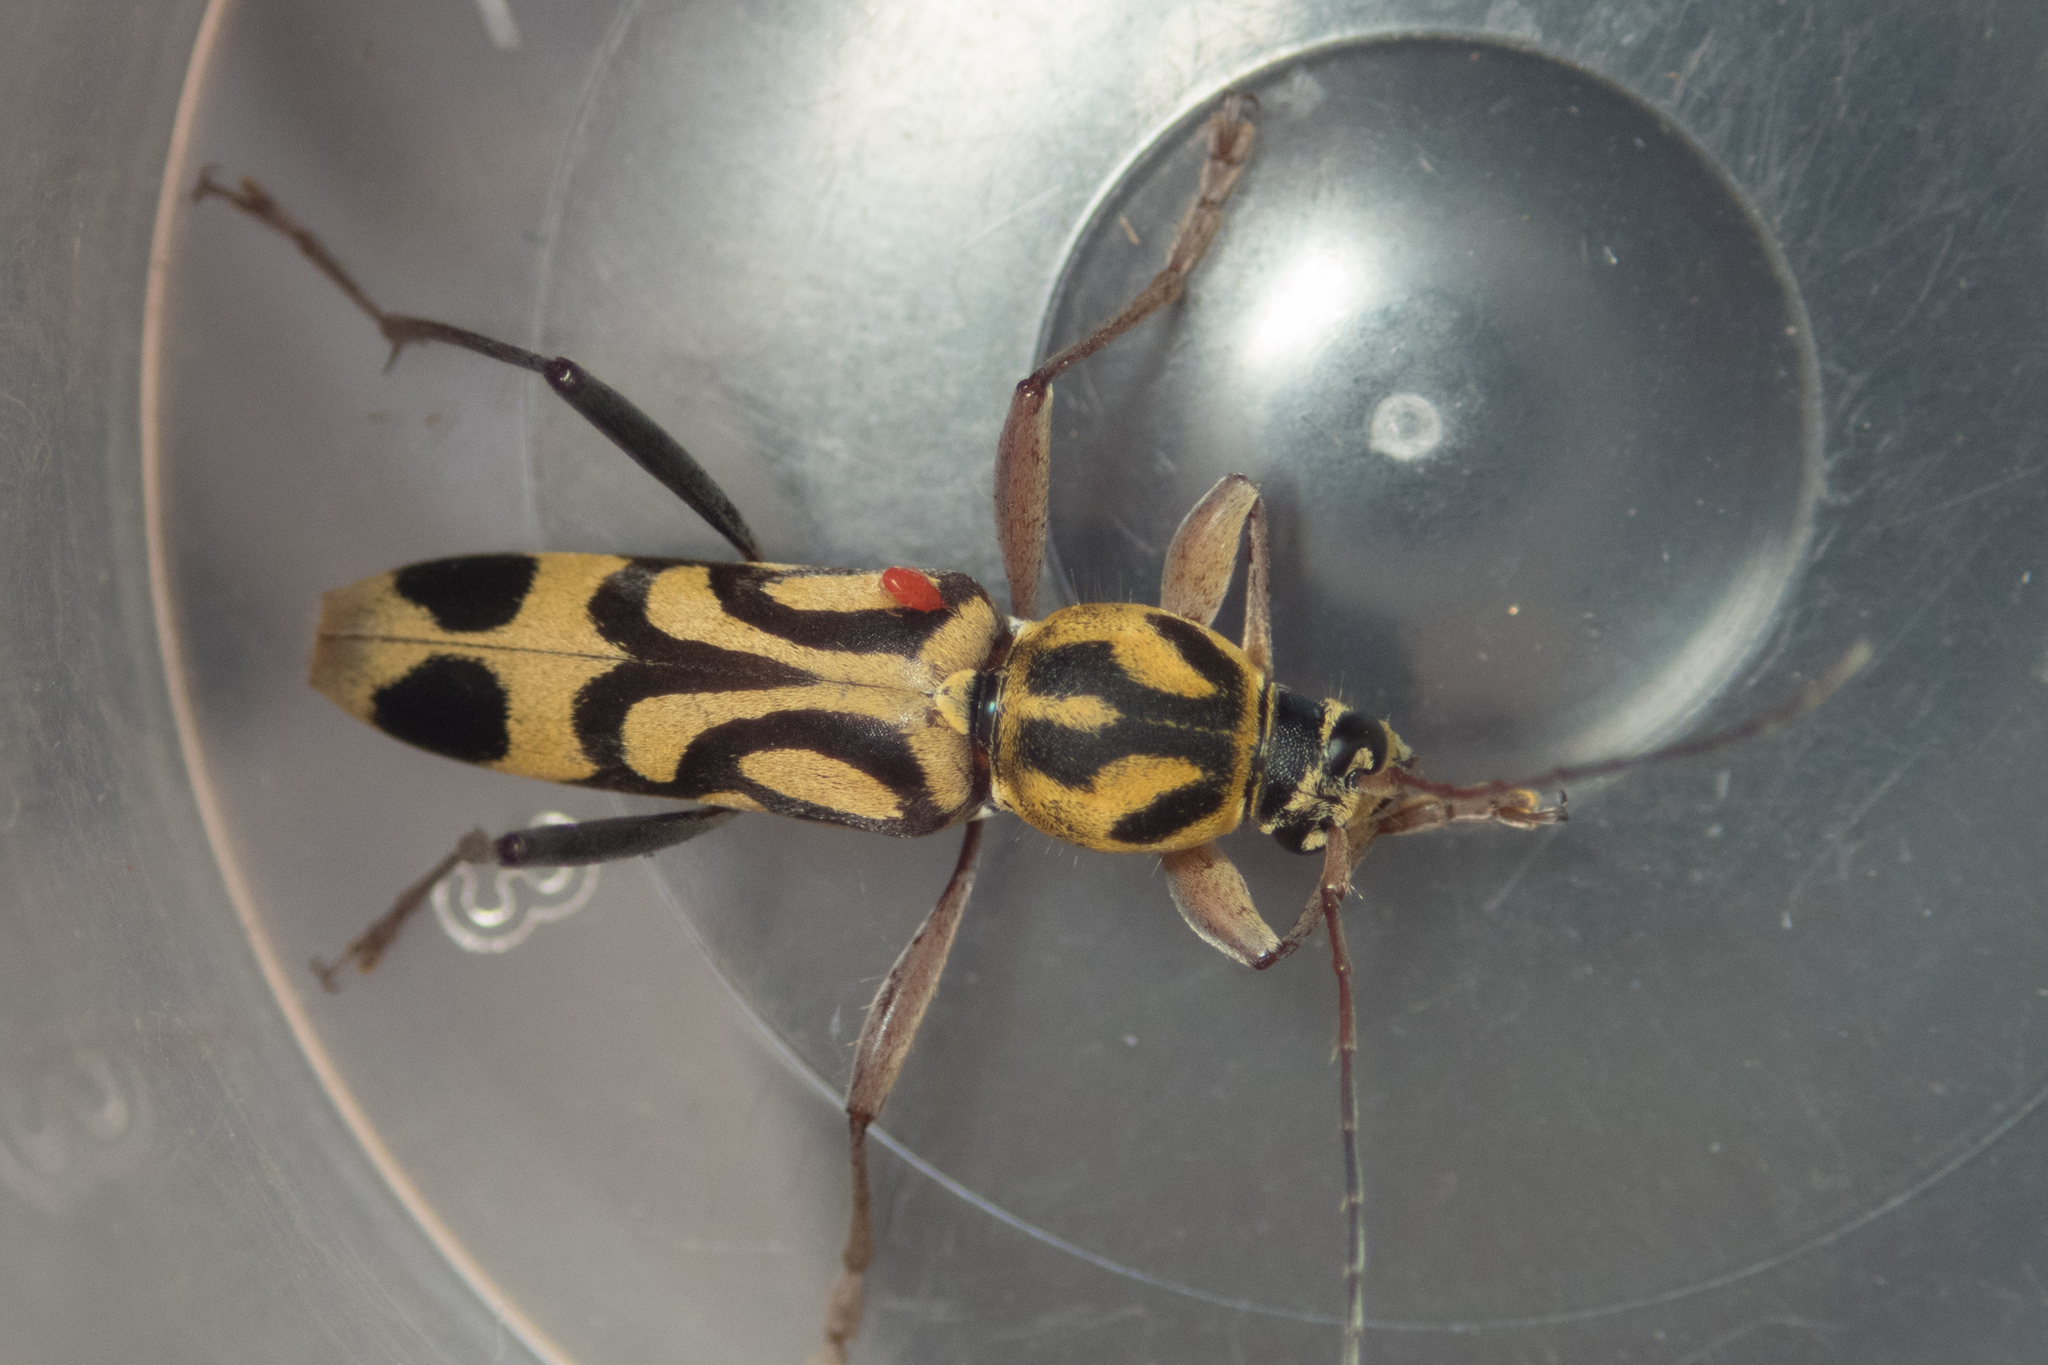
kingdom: Animalia
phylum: Arthropoda
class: Insecta
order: Coleoptera
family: Cerambycidae
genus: Chlorophorus
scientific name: Chlorophorus annularis
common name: Bamboo longhorn beetle
